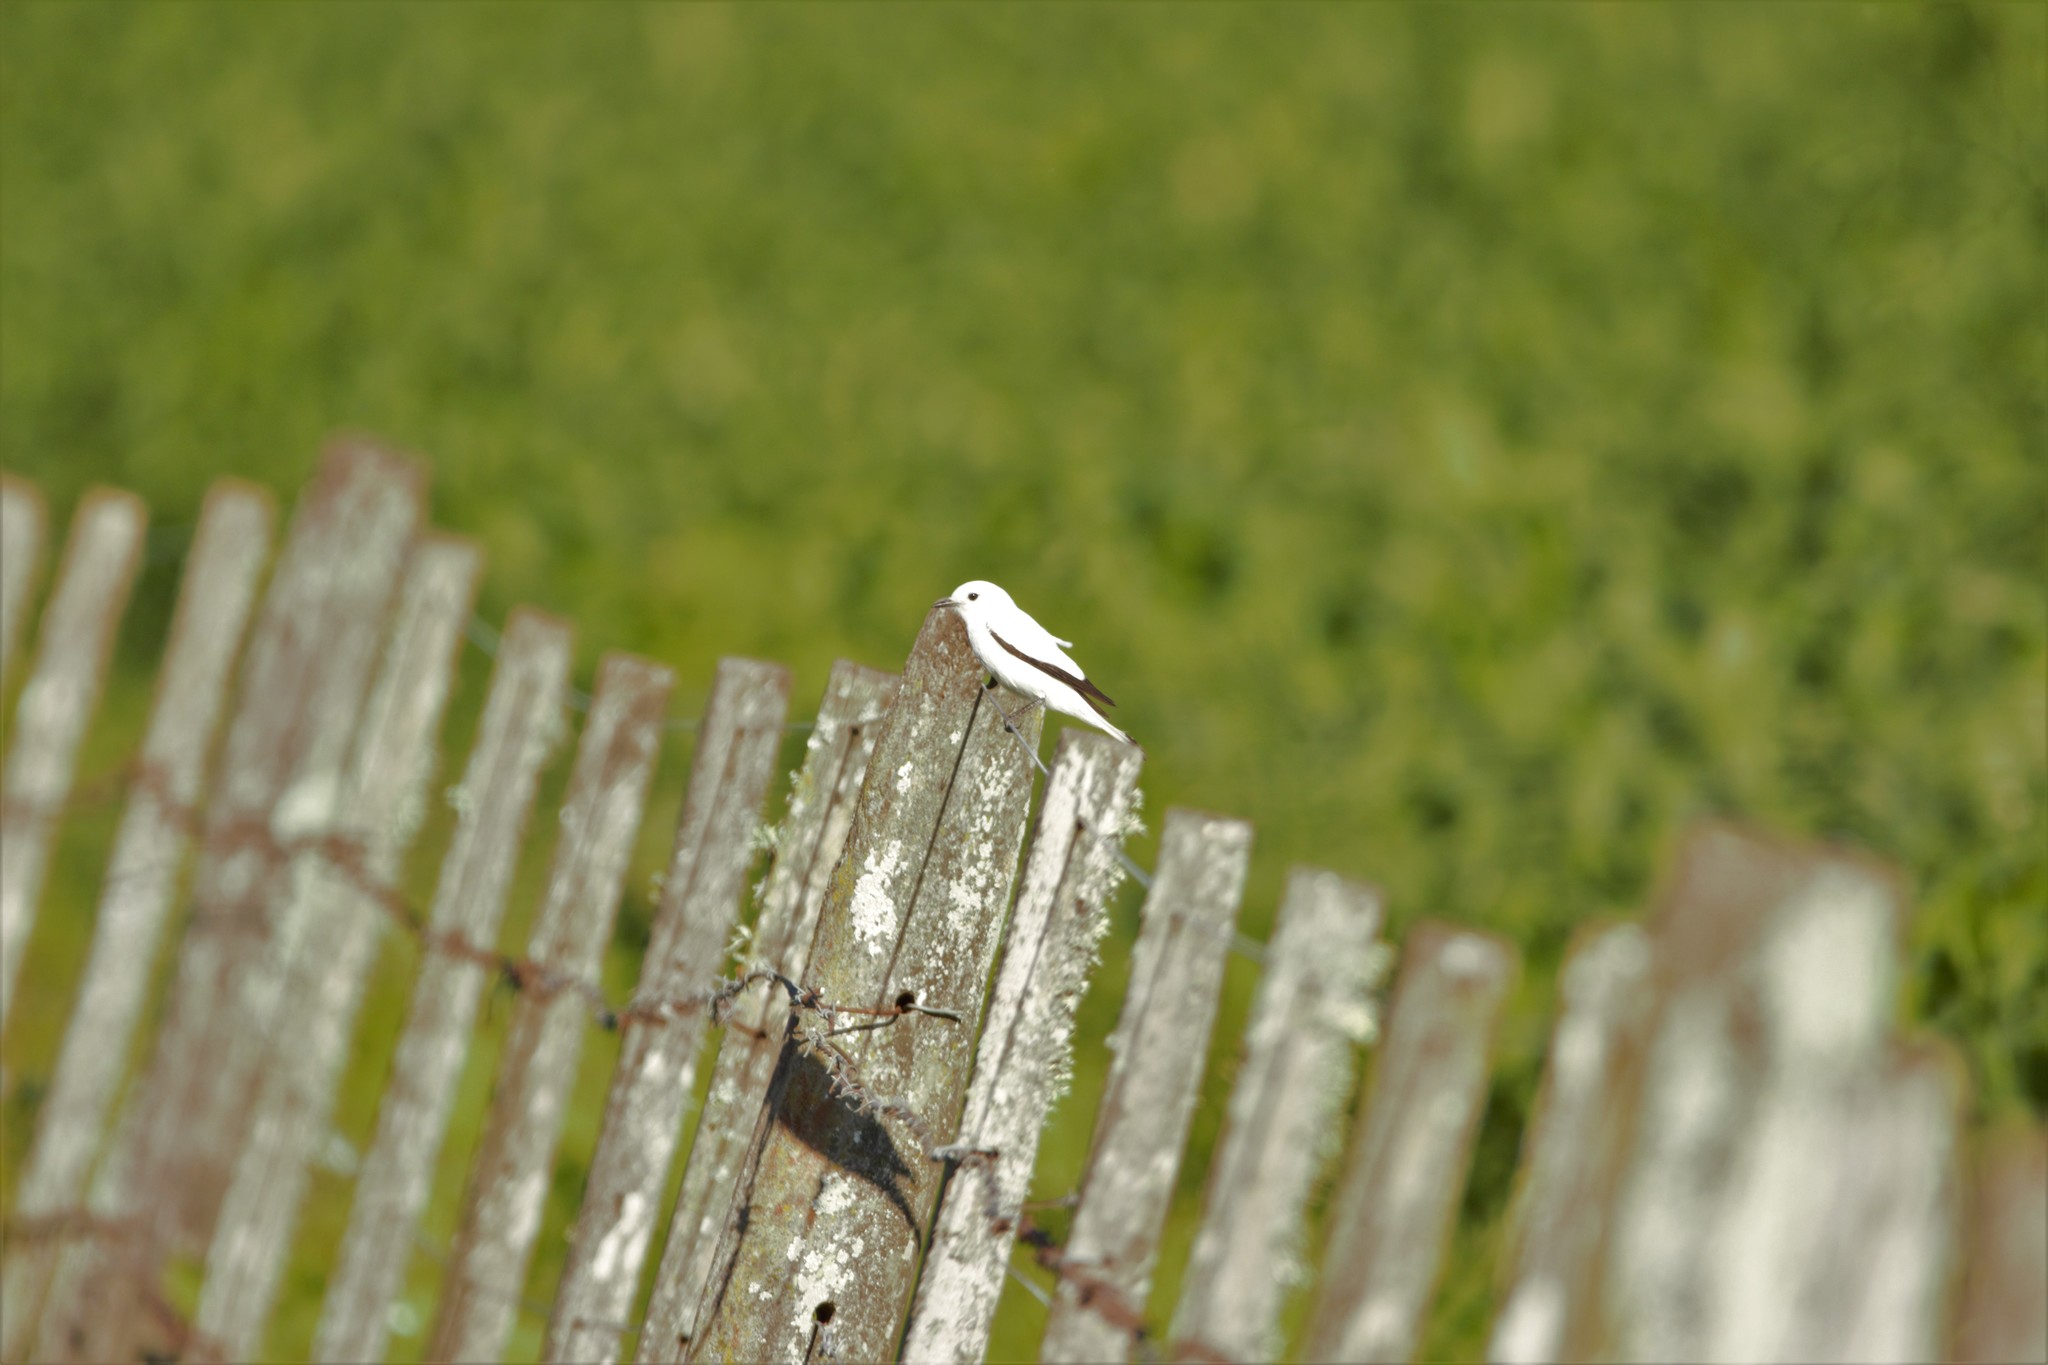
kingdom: Animalia
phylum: Chordata
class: Aves
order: Passeriformes
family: Tyrannidae
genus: Xolmis
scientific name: Xolmis irupero
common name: White monjita
